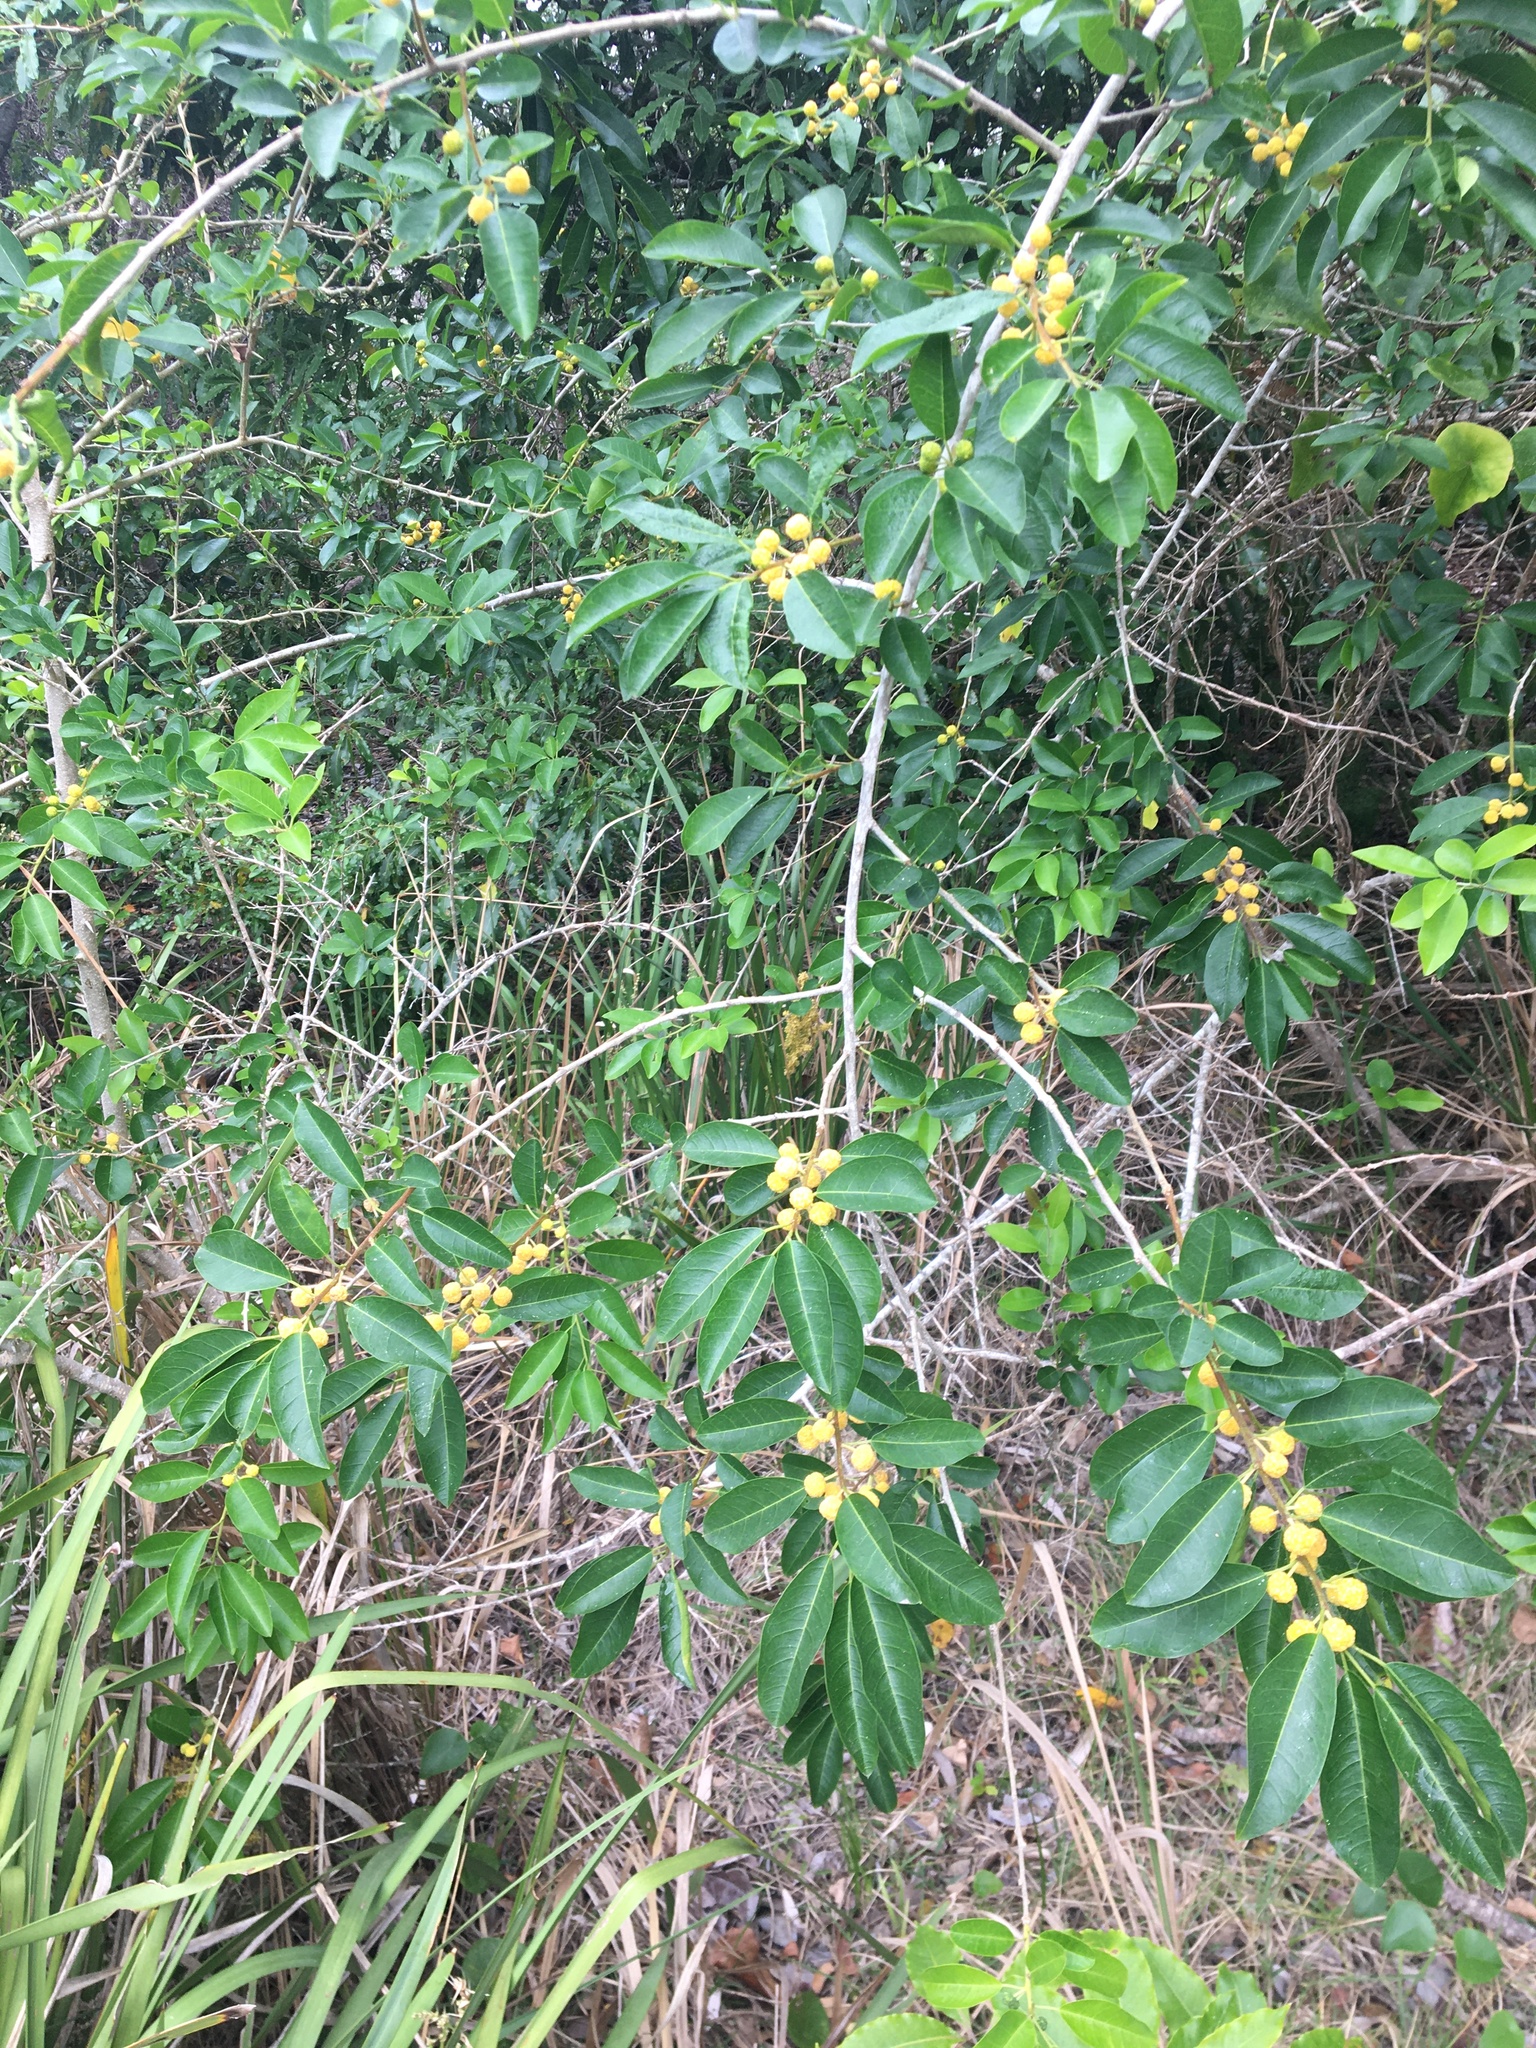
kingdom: Plantae
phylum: Tracheophyta
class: Magnoliopsida
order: Rosales
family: Moraceae
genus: Maclura
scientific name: Maclura cochinchinensis
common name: Cockspurthorn
